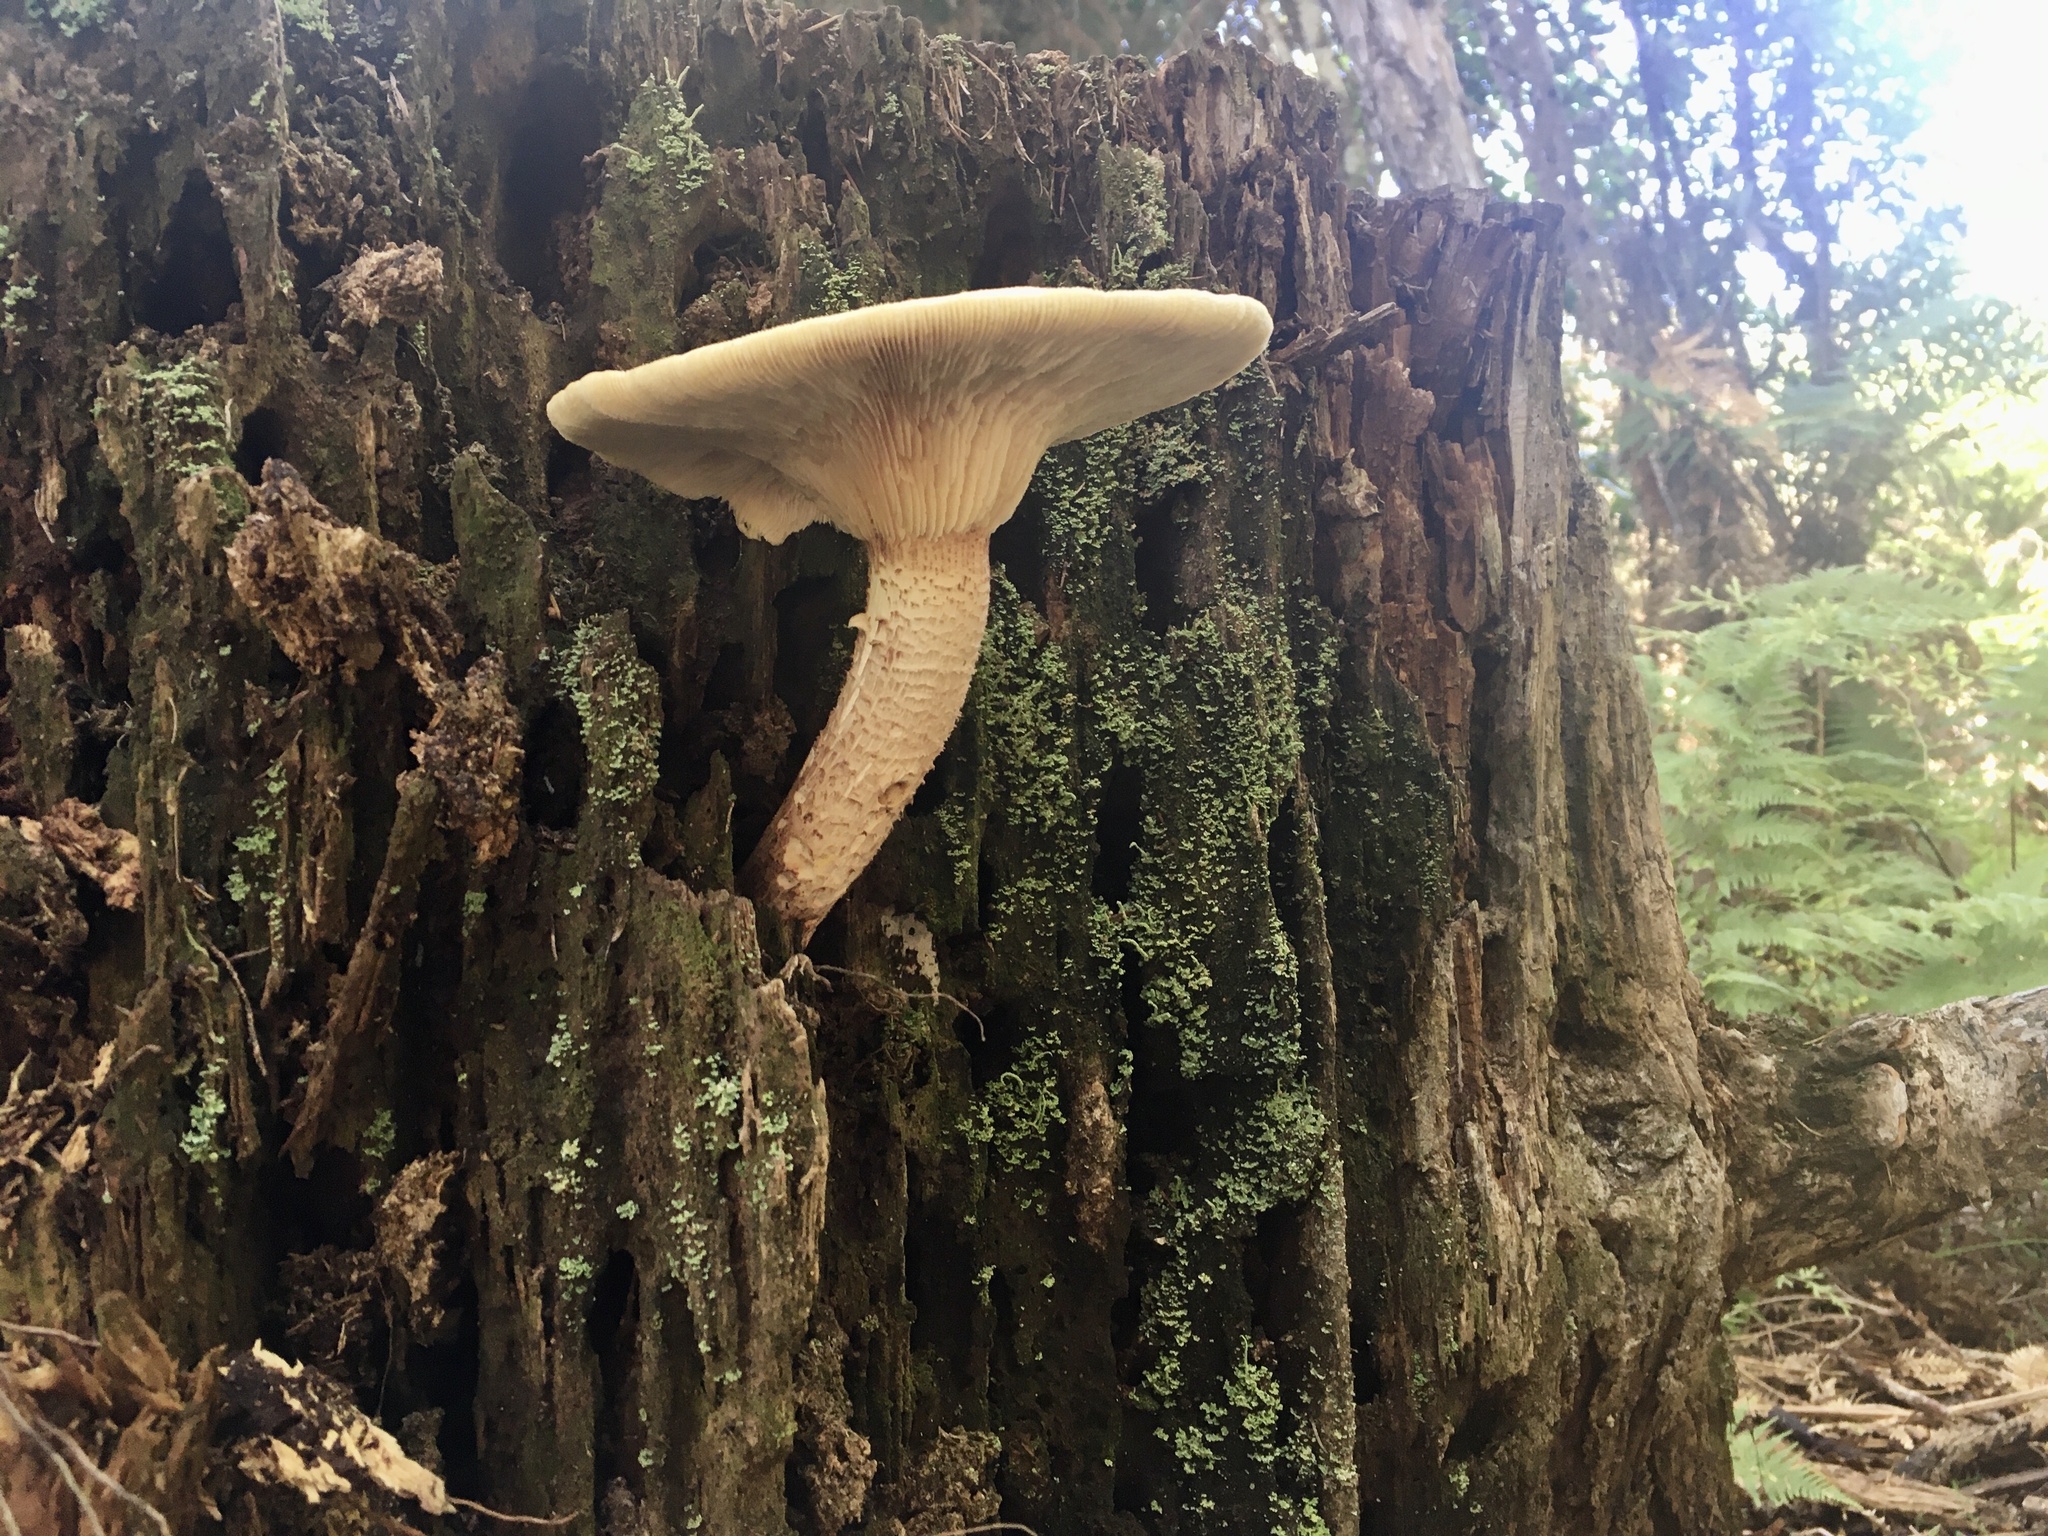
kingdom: Fungi
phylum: Basidiomycota
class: Agaricomycetes
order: Gloeophyllales
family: Gloeophyllaceae
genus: Neolentinus
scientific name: Neolentinus lepideus
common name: Scaly sawgill
